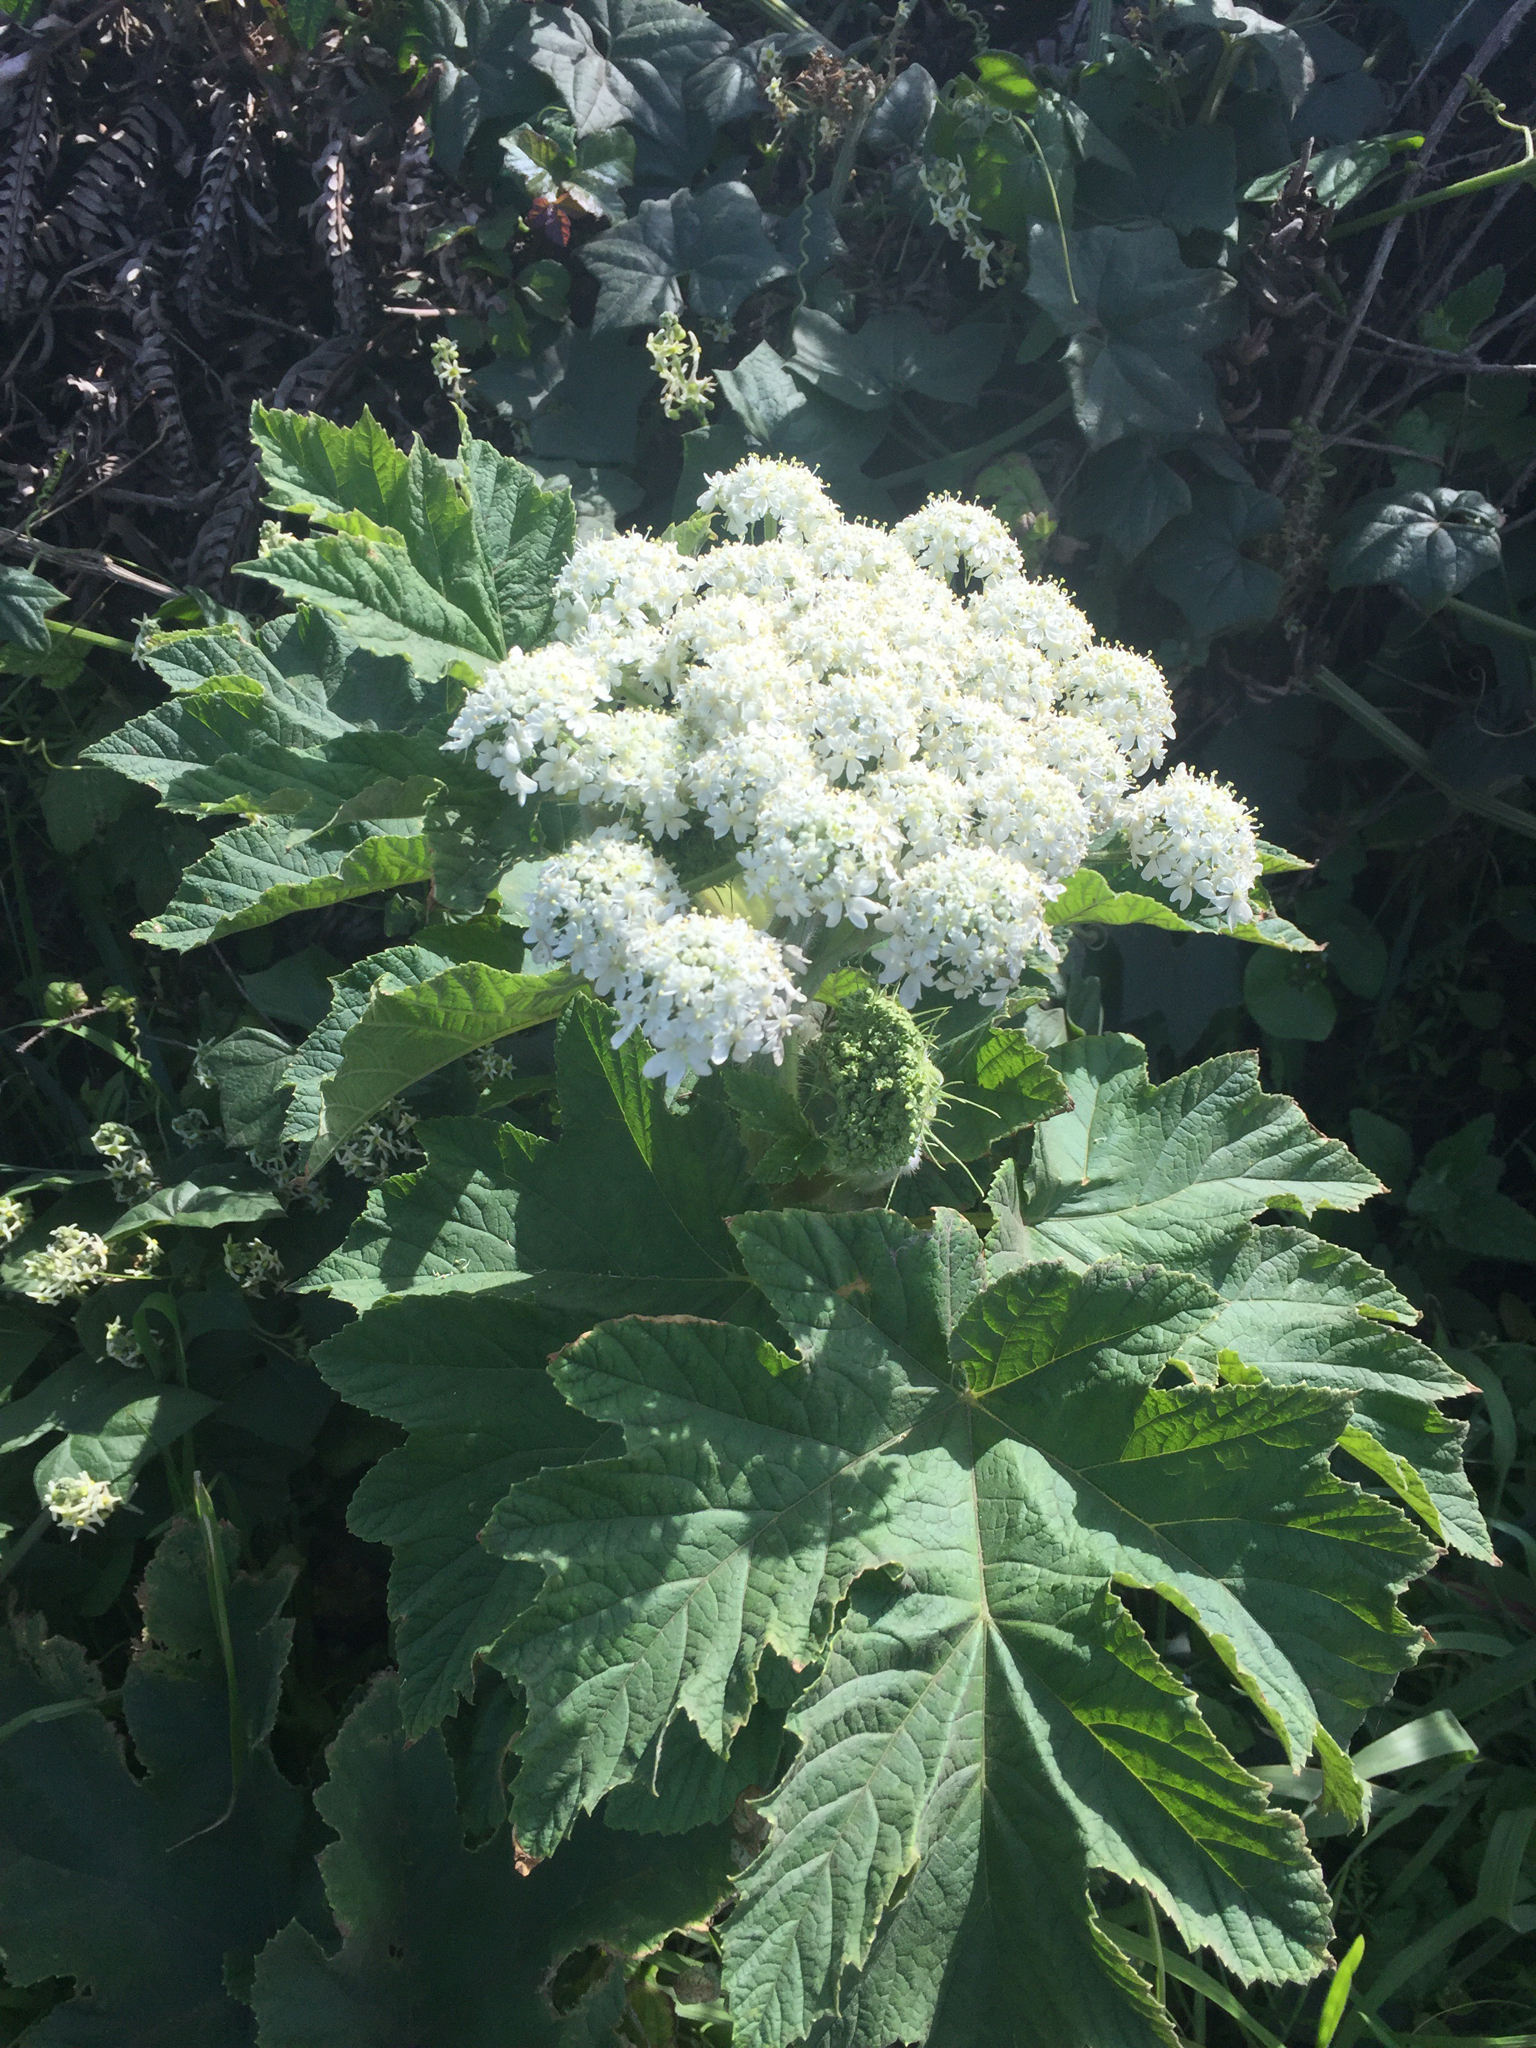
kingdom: Plantae
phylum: Tracheophyta
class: Magnoliopsida
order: Apiales
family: Apiaceae
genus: Heracleum
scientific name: Heracleum maximum
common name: American cow parsnip
